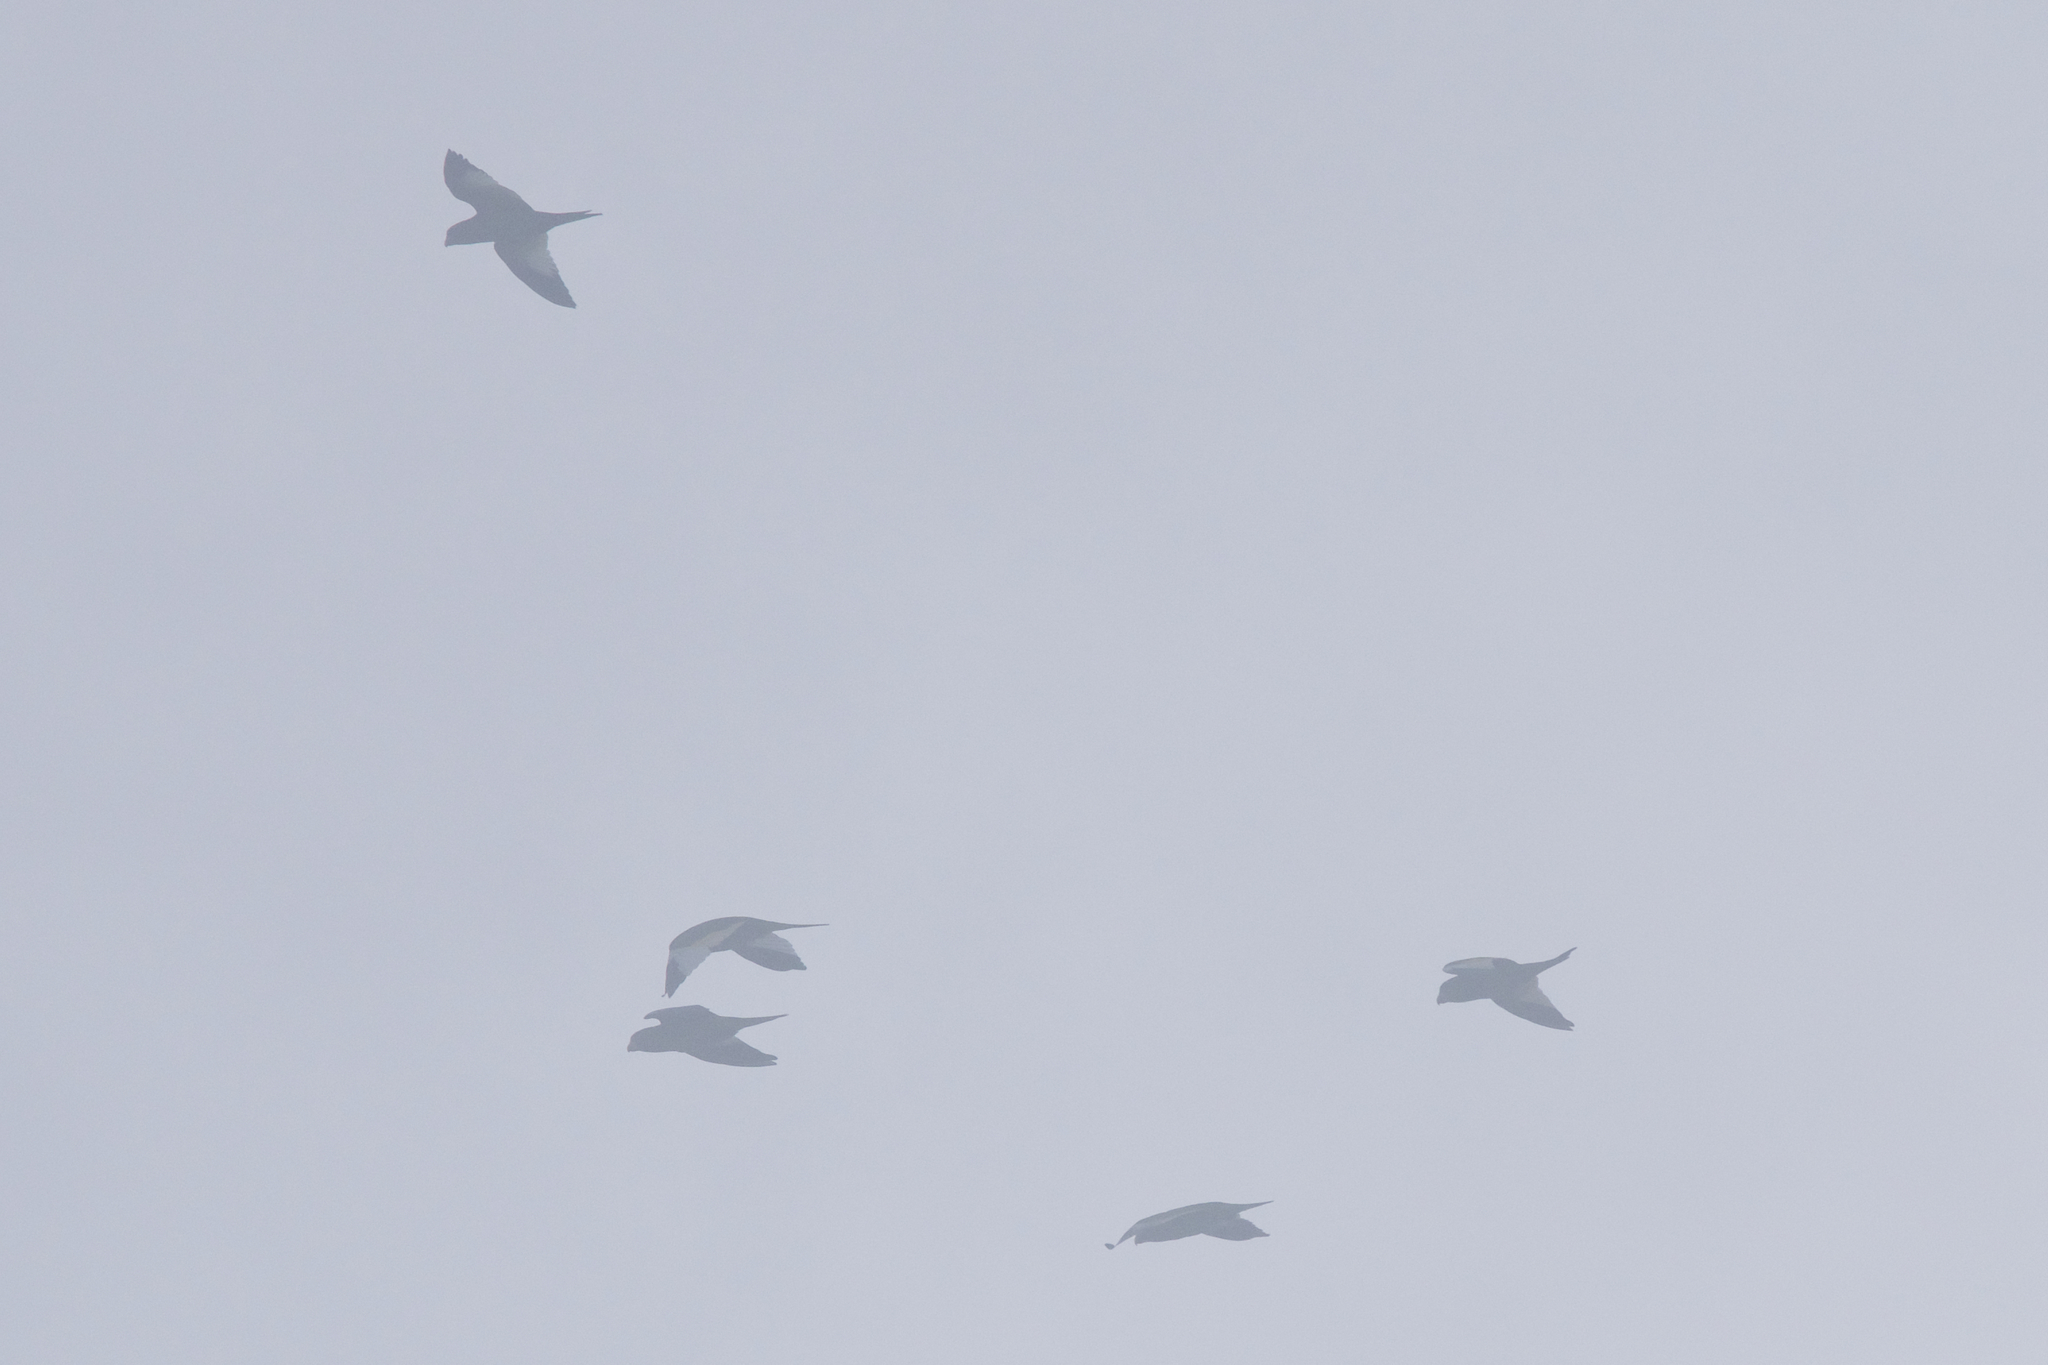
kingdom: Animalia
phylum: Chordata
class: Aves
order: Psittaciformes
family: Psittacidae
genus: Brotogeris
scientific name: Brotogeris versicolurus
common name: White-winged parakeet
